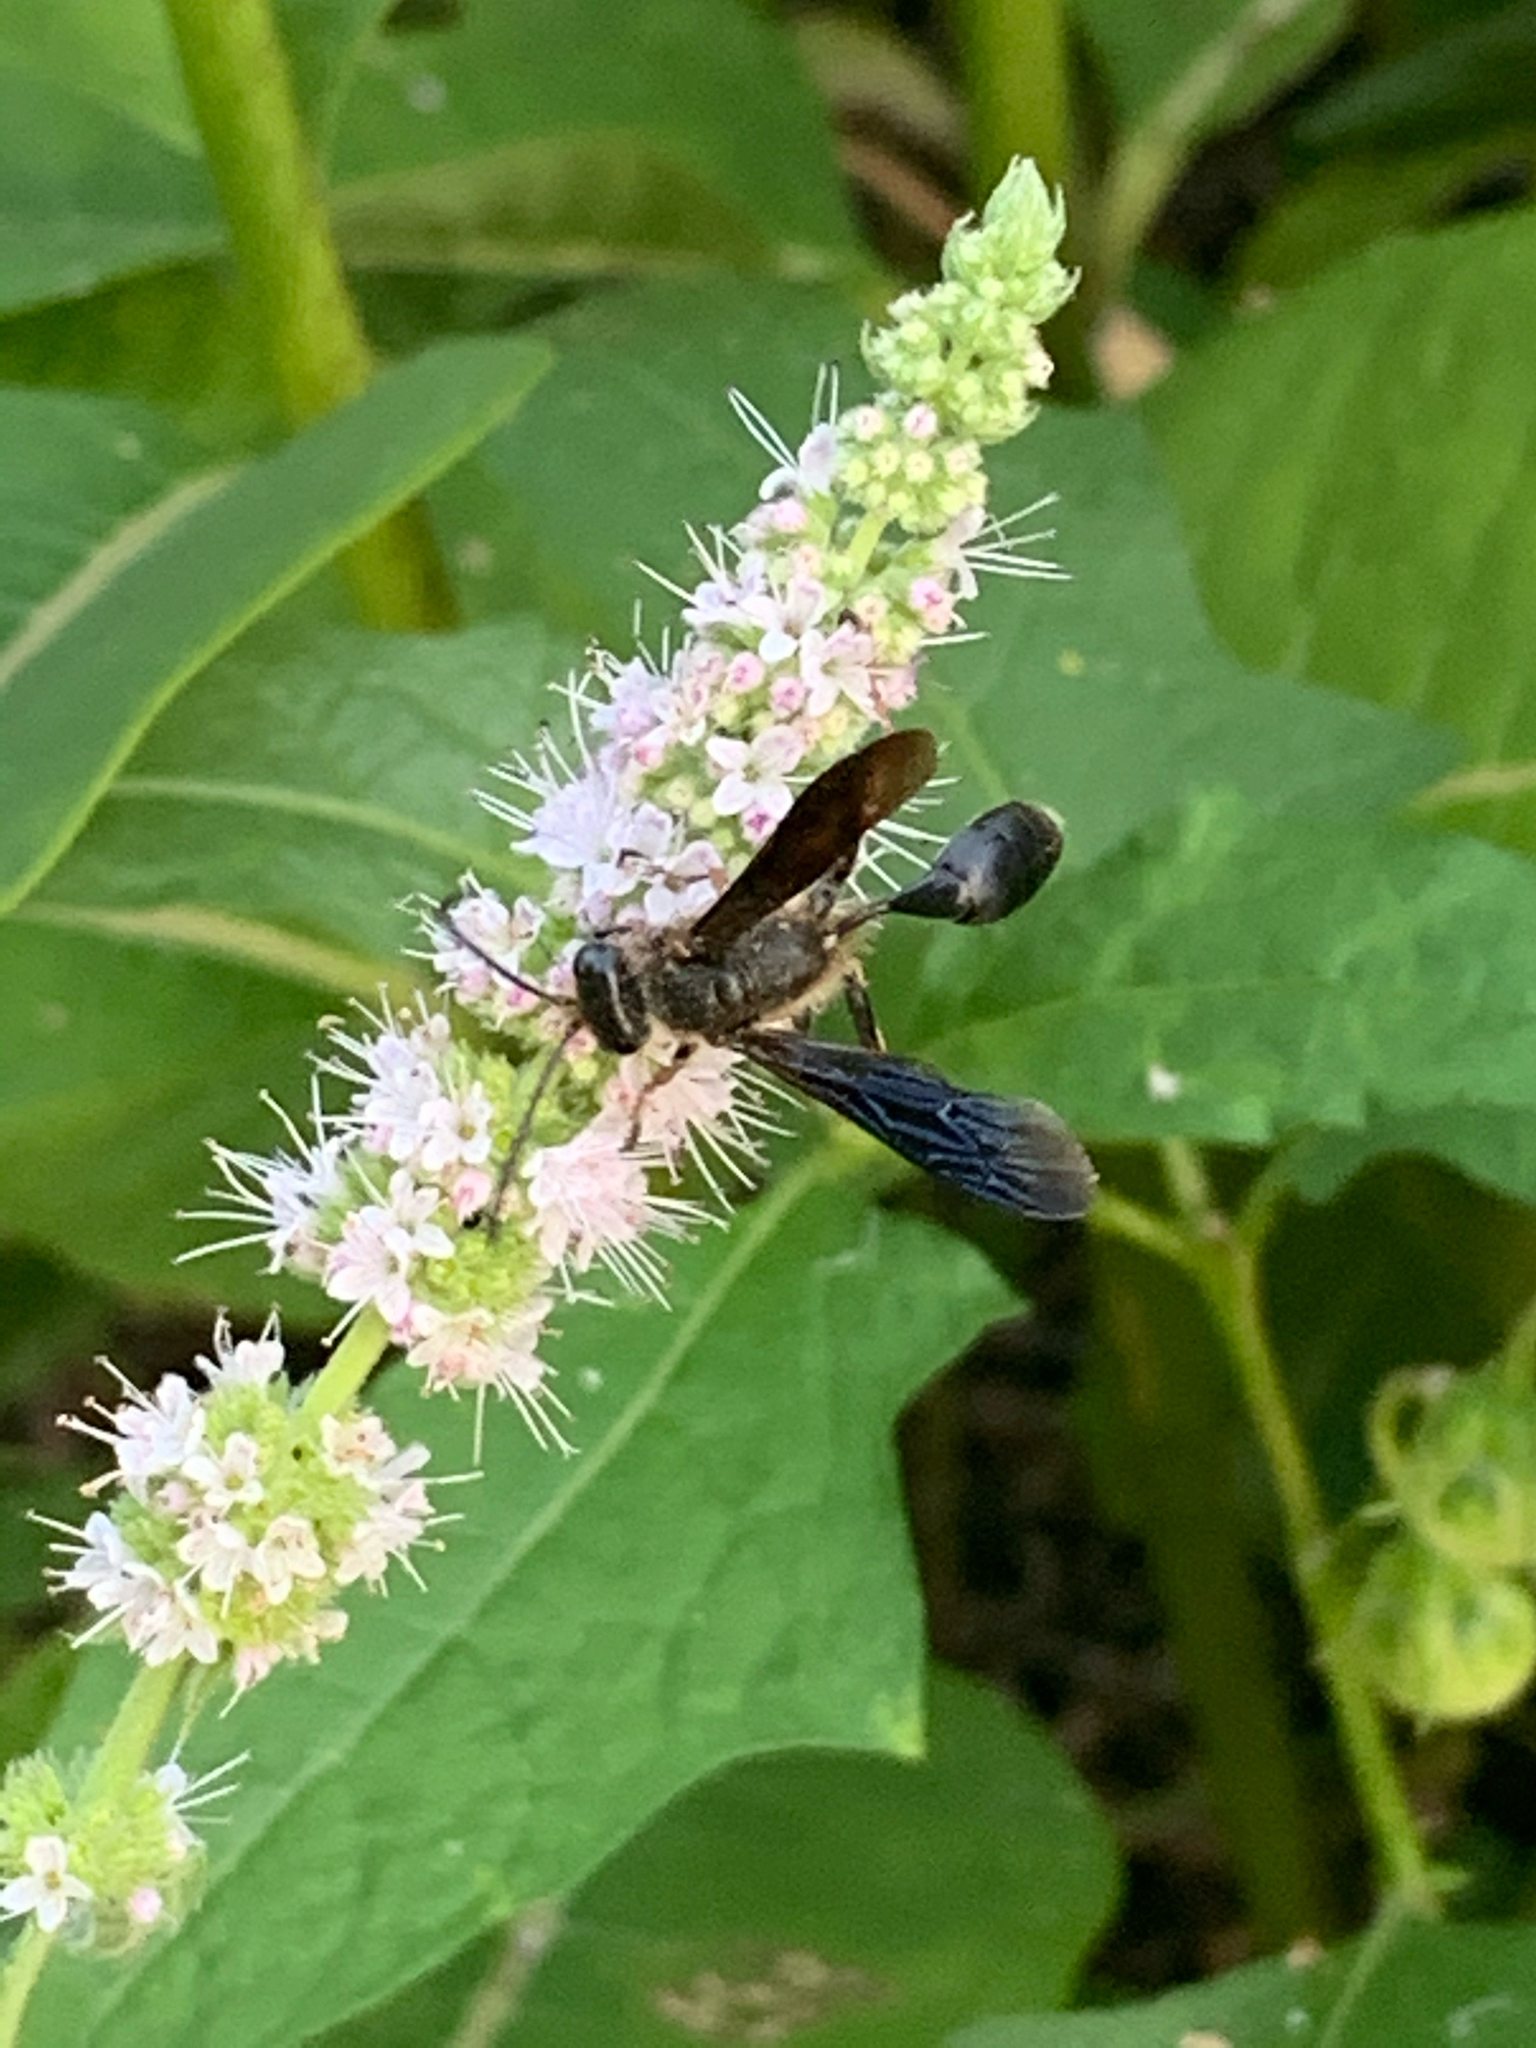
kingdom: Animalia
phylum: Arthropoda
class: Insecta
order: Hymenoptera
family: Sphecidae
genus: Isodontia
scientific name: Isodontia auripes
